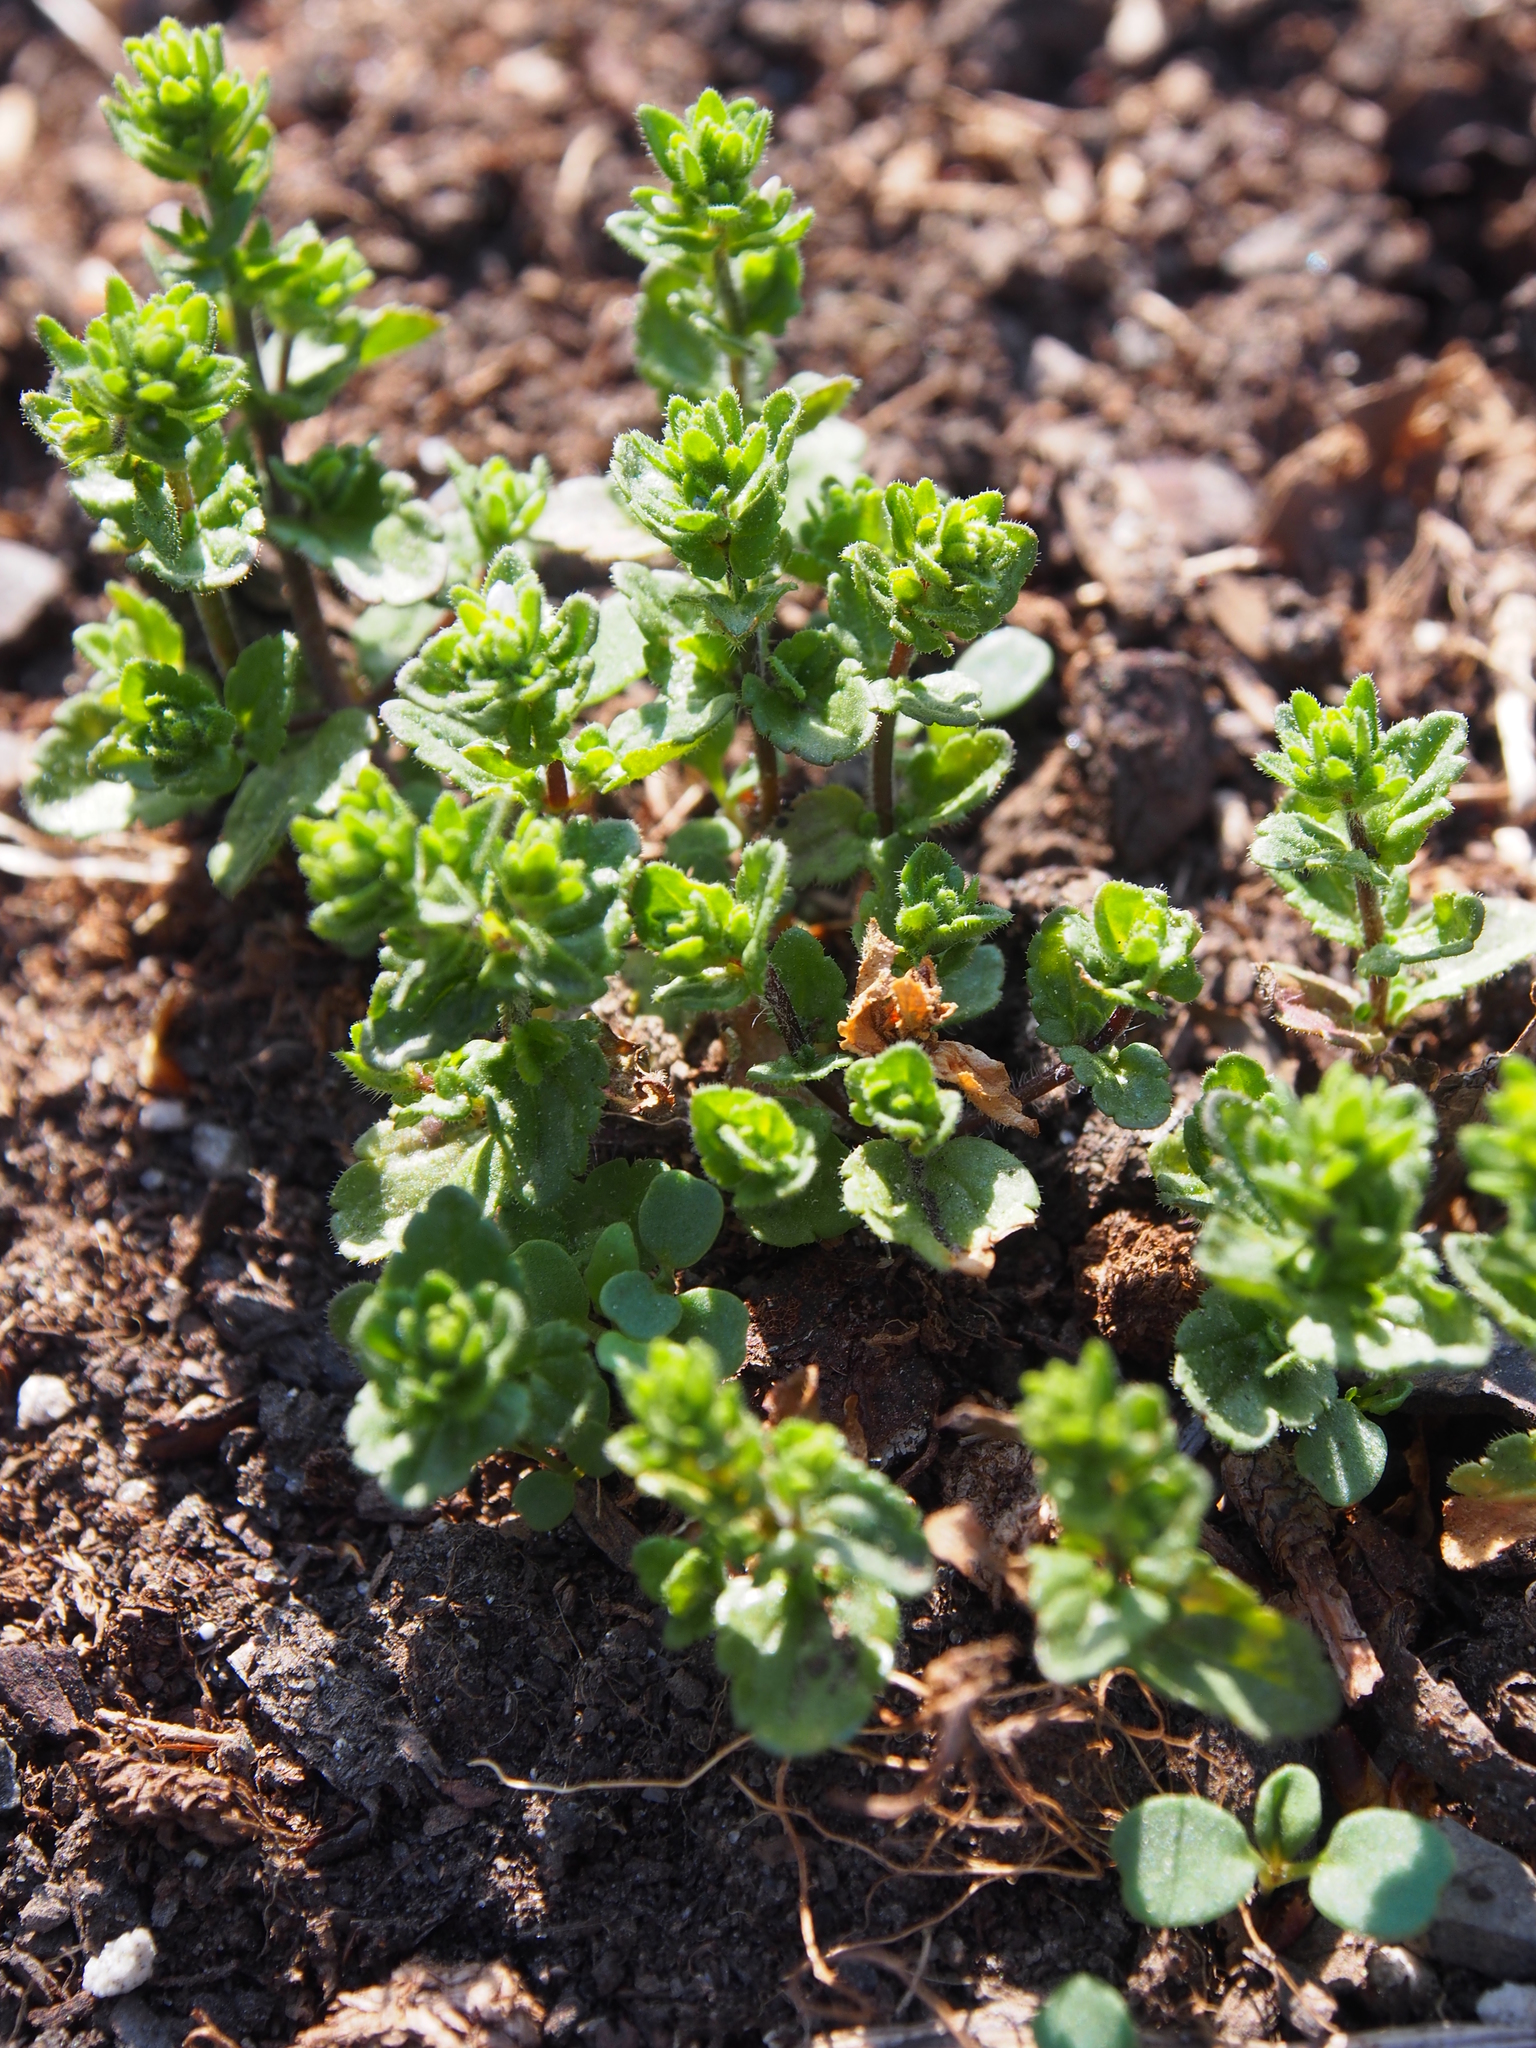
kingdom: Plantae
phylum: Tracheophyta
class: Magnoliopsida
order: Lamiales
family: Plantaginaceae
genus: Veronica
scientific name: Veronica arvensis
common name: Corn speedwell
